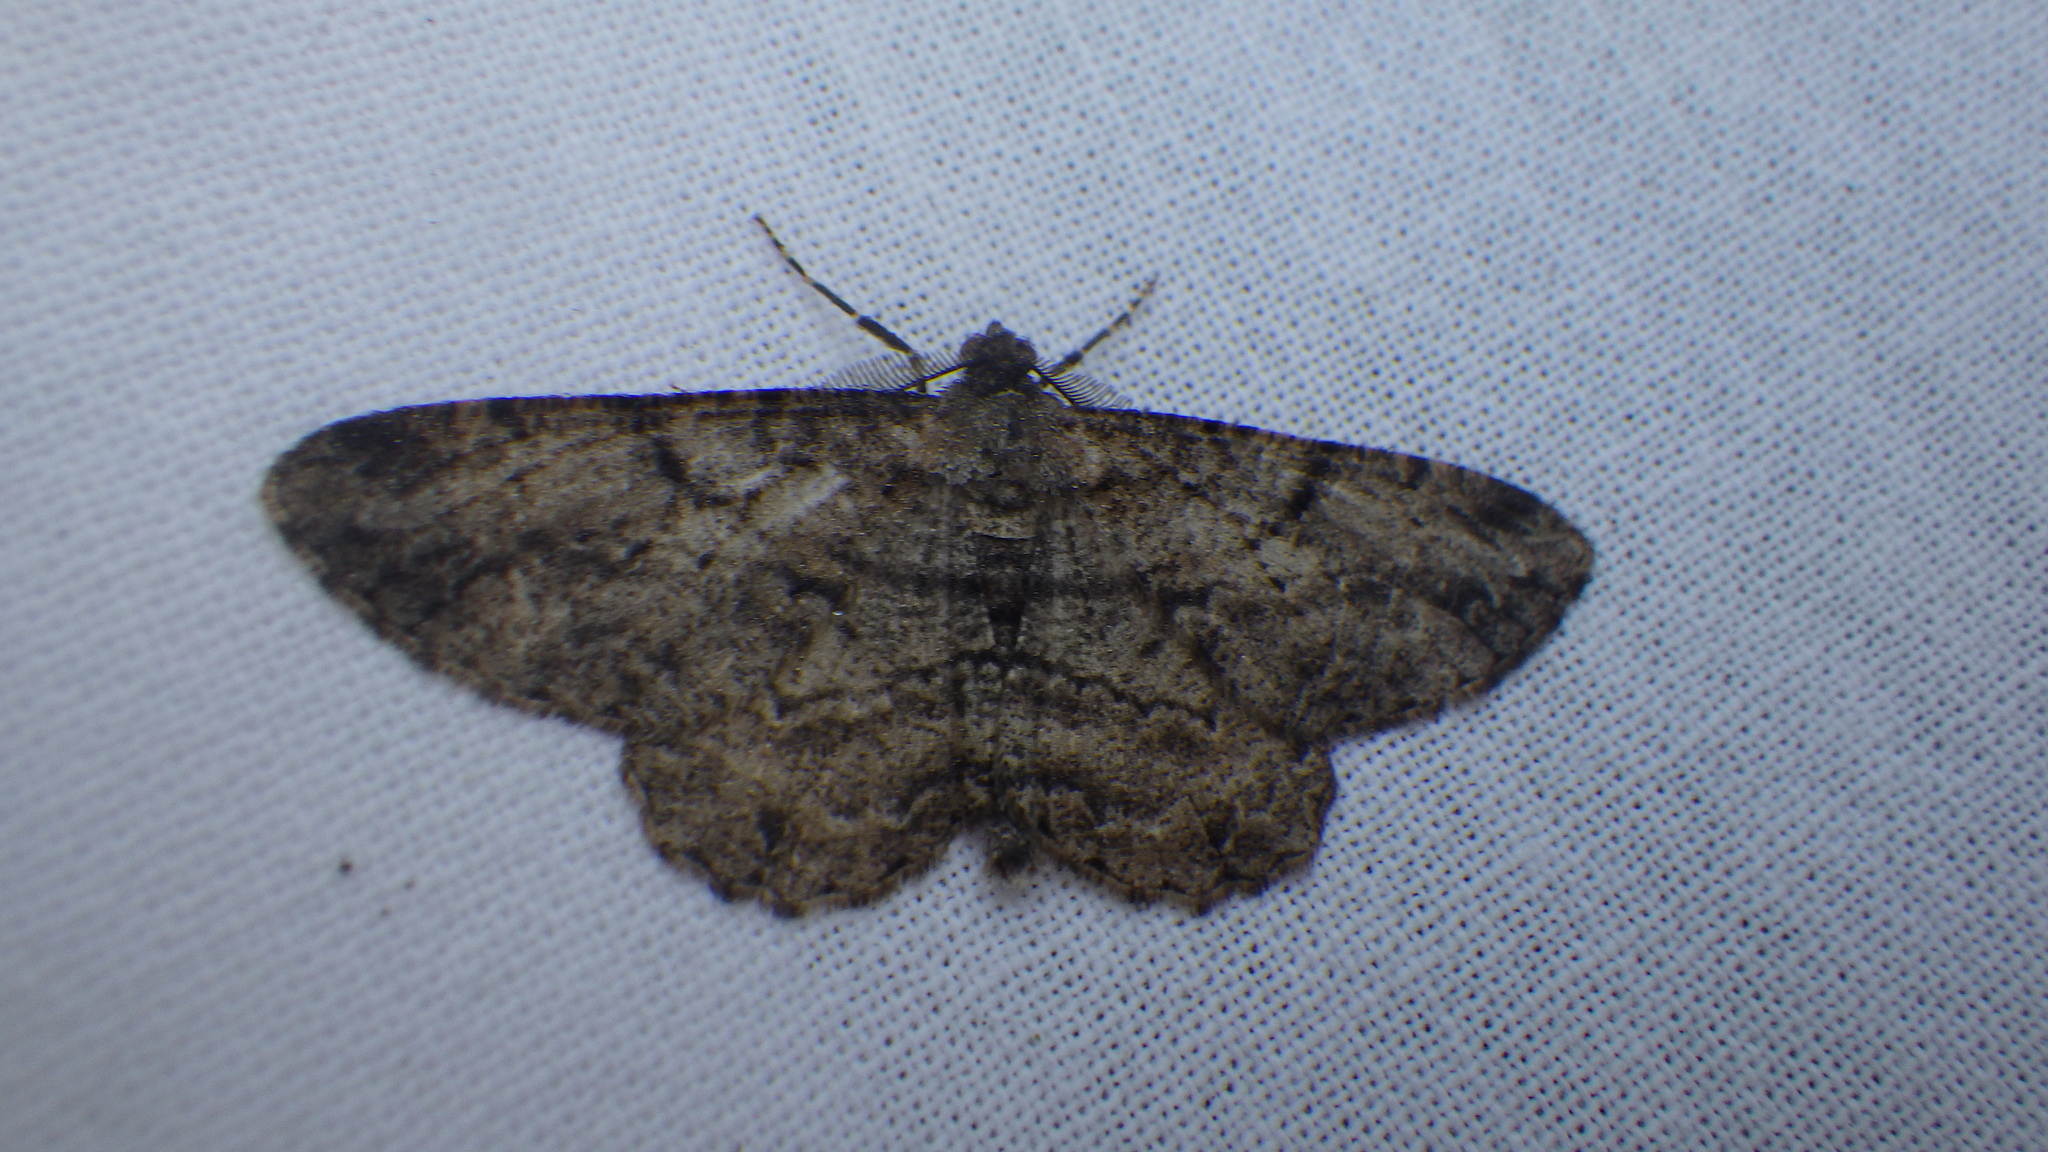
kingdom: Animalia
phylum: Arthropoda
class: Insecta
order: Lepidoptera
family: Geometridae
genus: Peribatodes
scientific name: Peribatodes rhomboidaria
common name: Willow beauty
